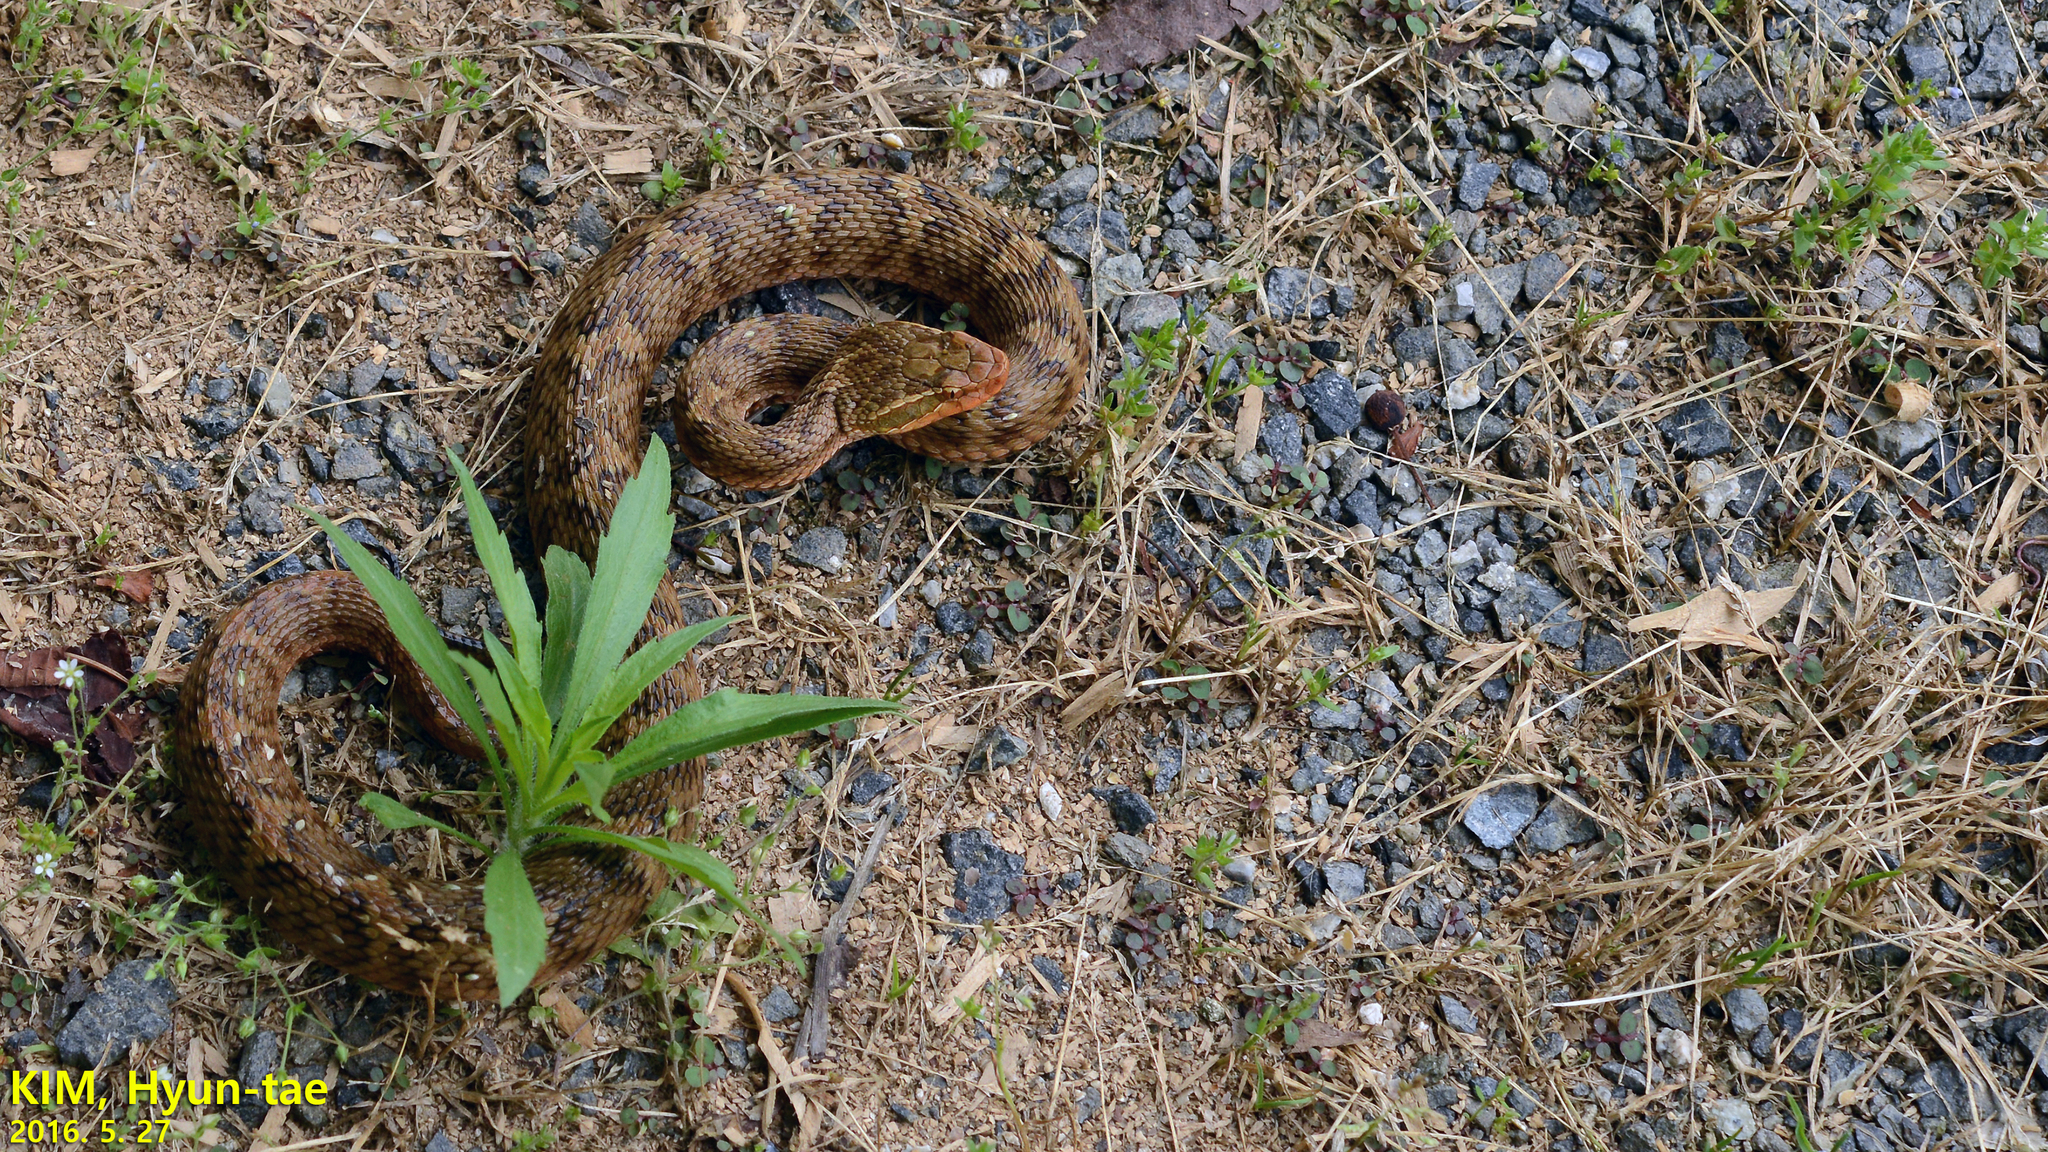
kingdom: Animalia
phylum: Chordata
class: Squamata
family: Viperidae
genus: Gloydius
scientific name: Gloydius ussuriensis
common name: Ussuri mamushi
